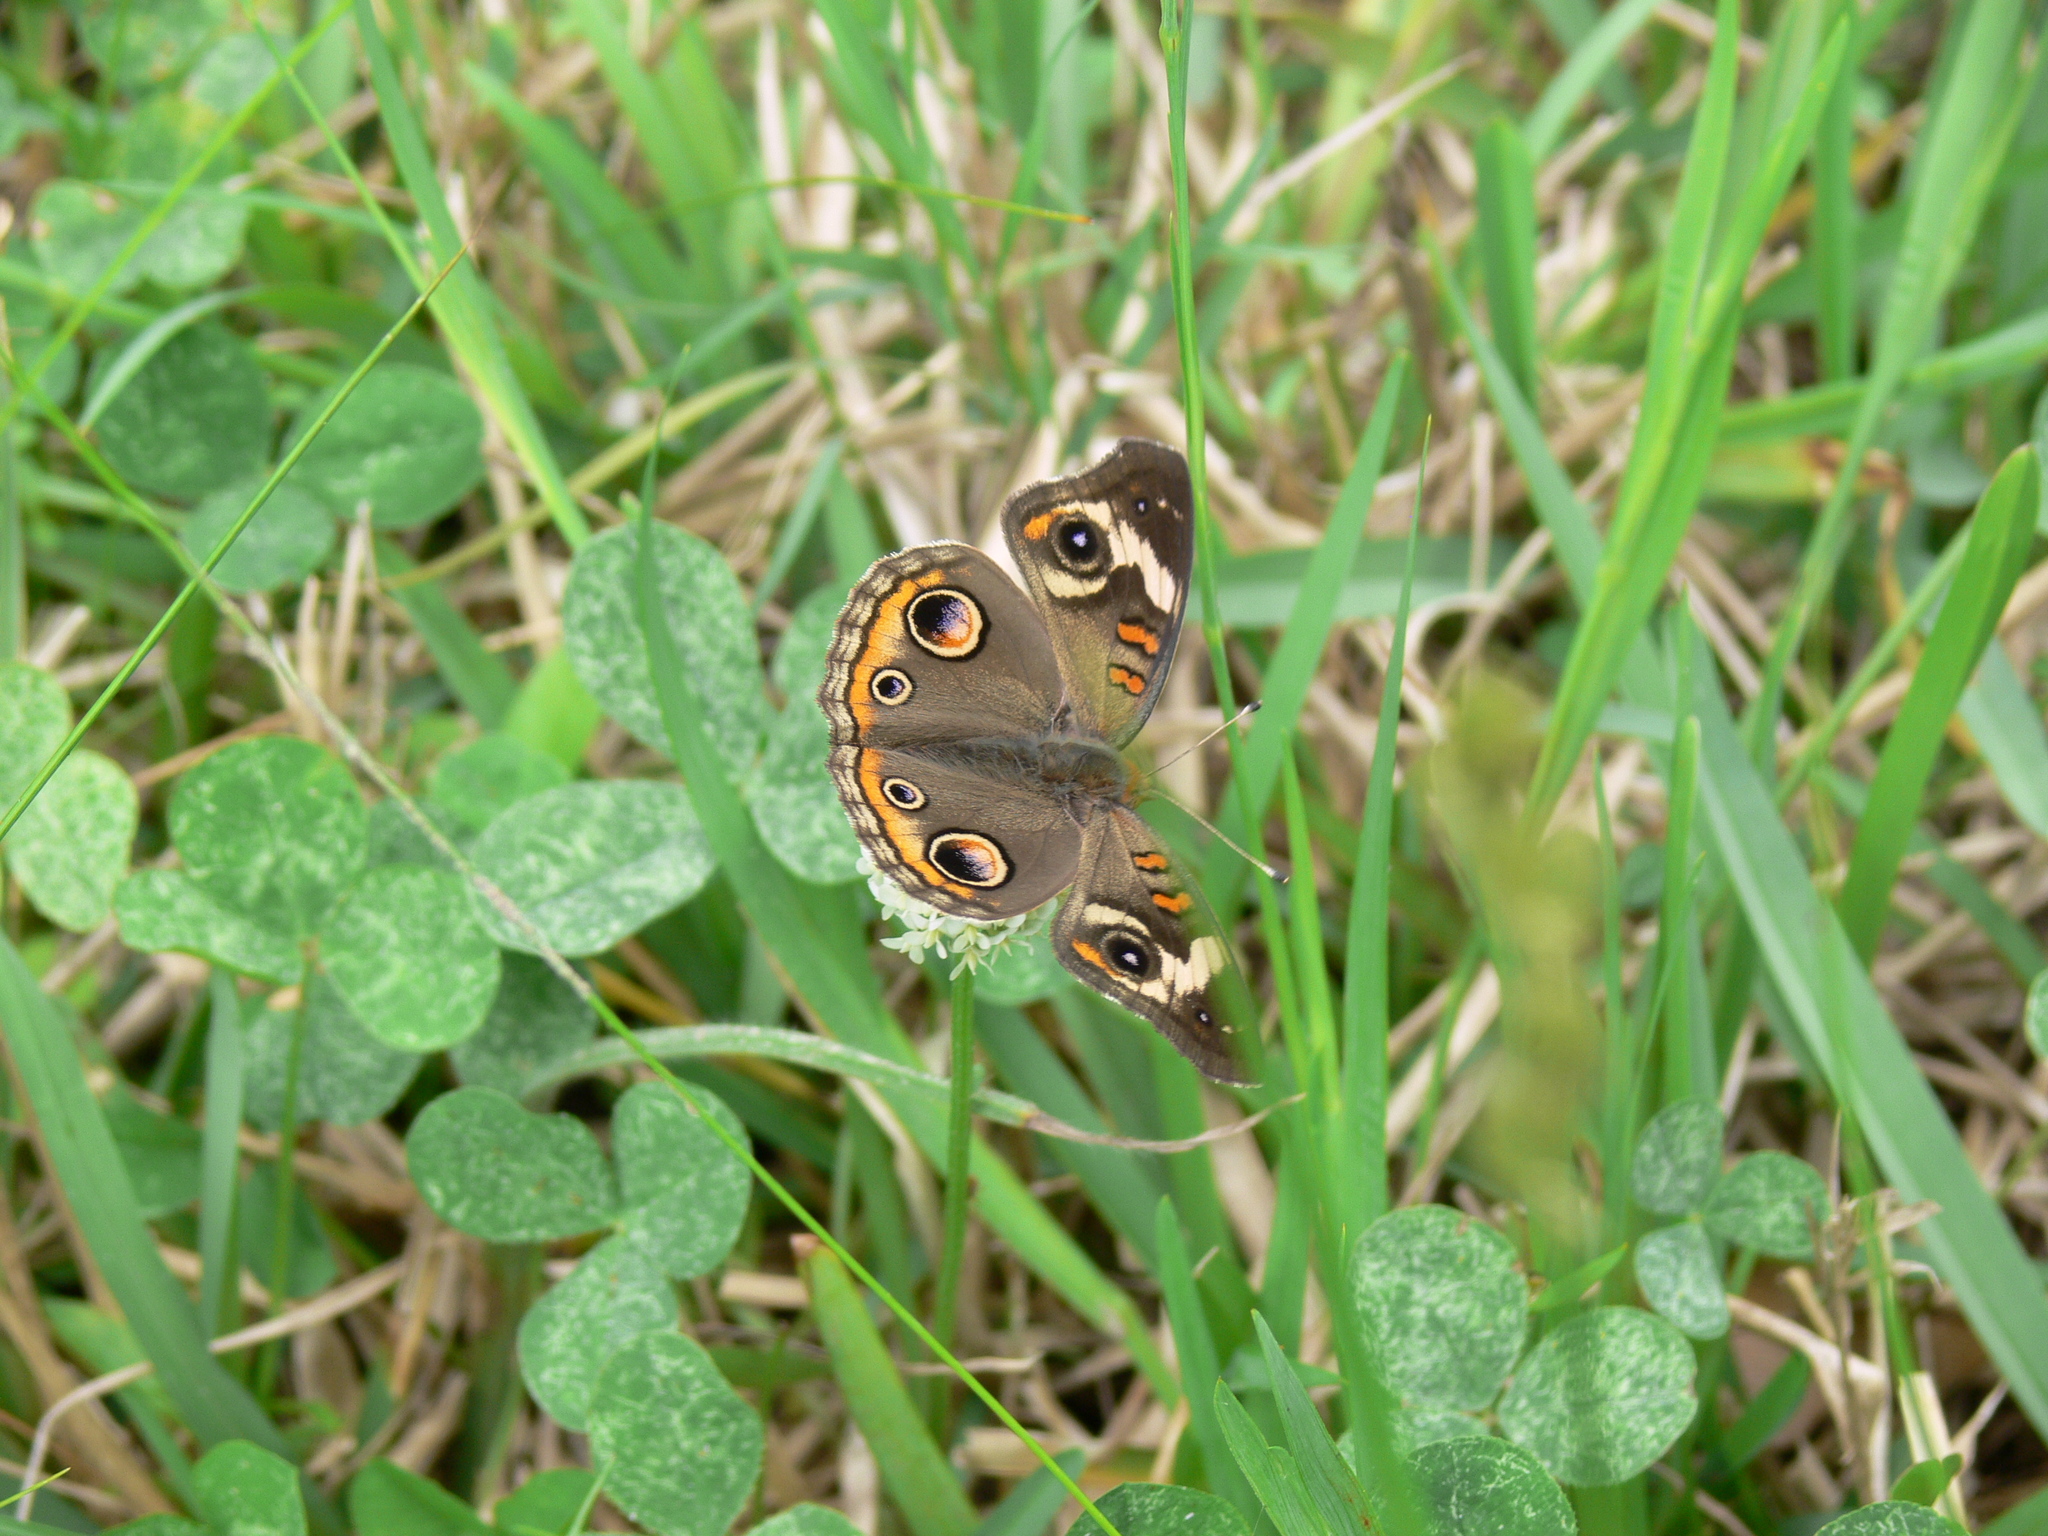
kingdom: Animalia
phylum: Arthropoda
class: Insecta
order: Lepidoptera
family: Nymphalidae
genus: Junonia
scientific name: Junonia coenia
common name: Common buckeye
